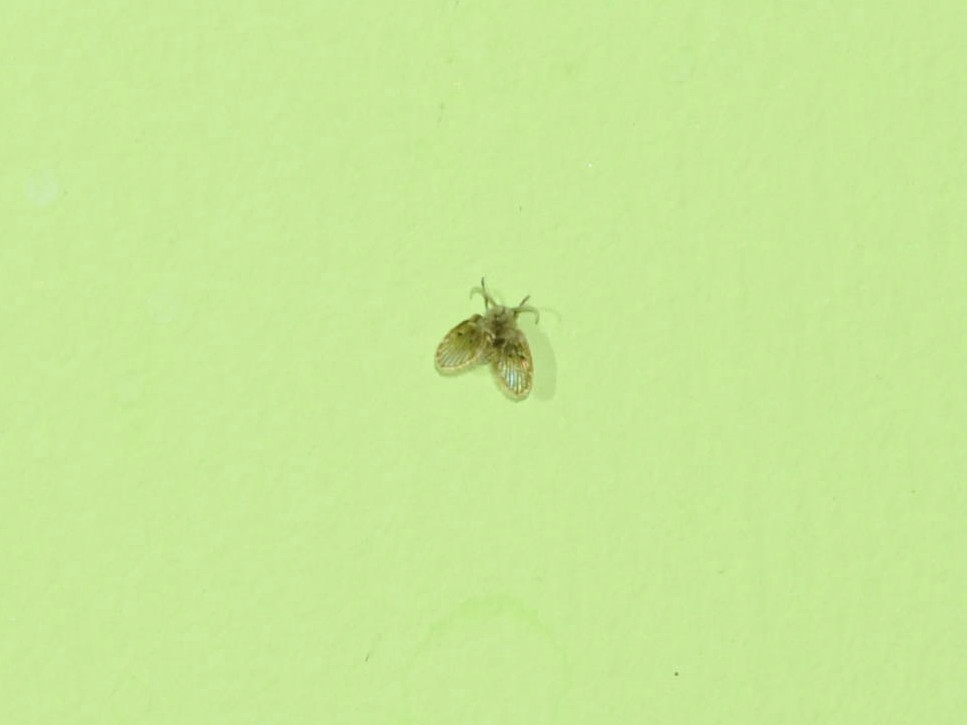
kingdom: Animalia
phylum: Arthropoda
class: Insecta
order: Diptera
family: Psychodidae
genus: Clogmia
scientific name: Clogmia albipunctatus
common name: White-spotted moth fly
